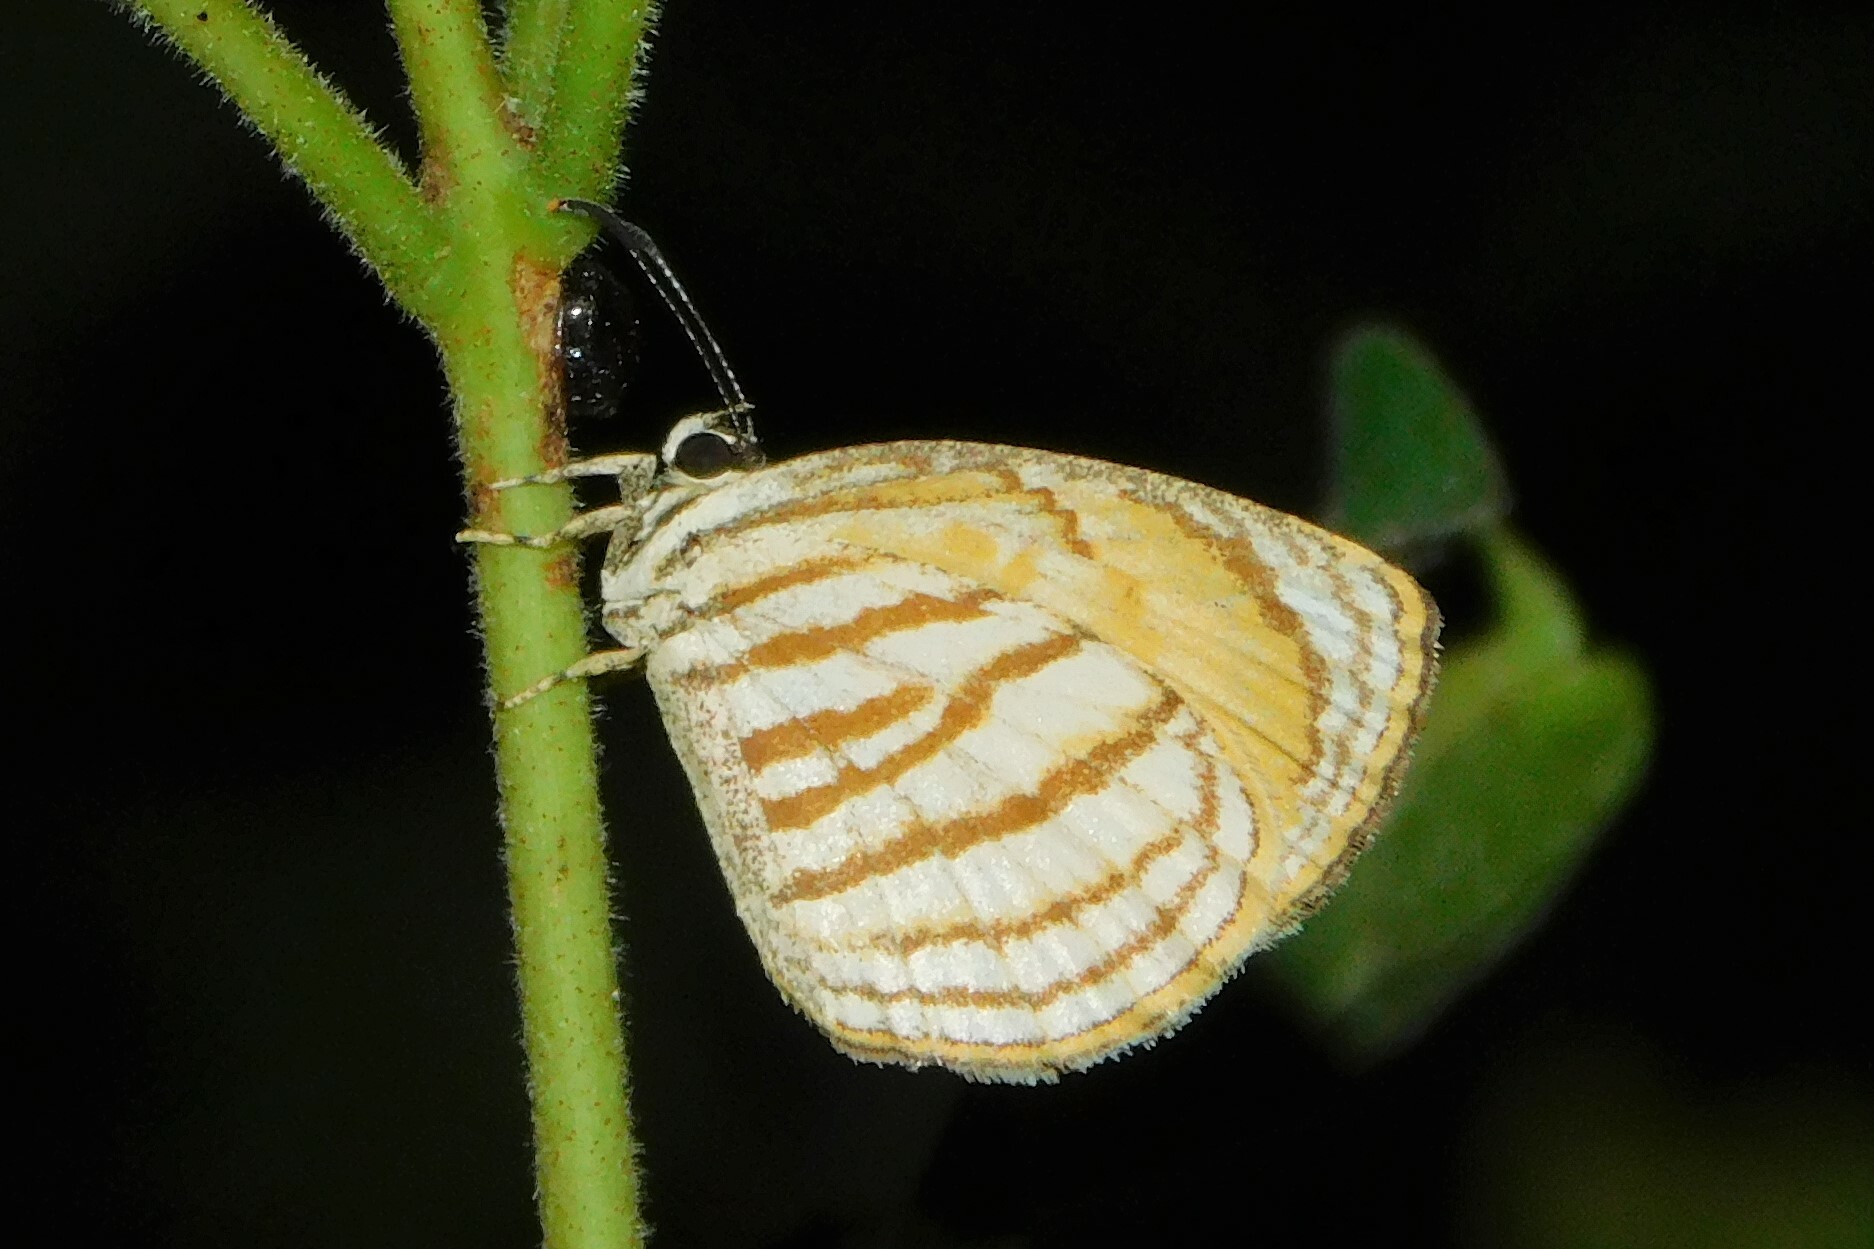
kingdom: Animalia
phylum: Arthropoda
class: Insecta
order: Lepidoptera
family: Lycaenidae
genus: Liptena
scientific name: Liptena undina
